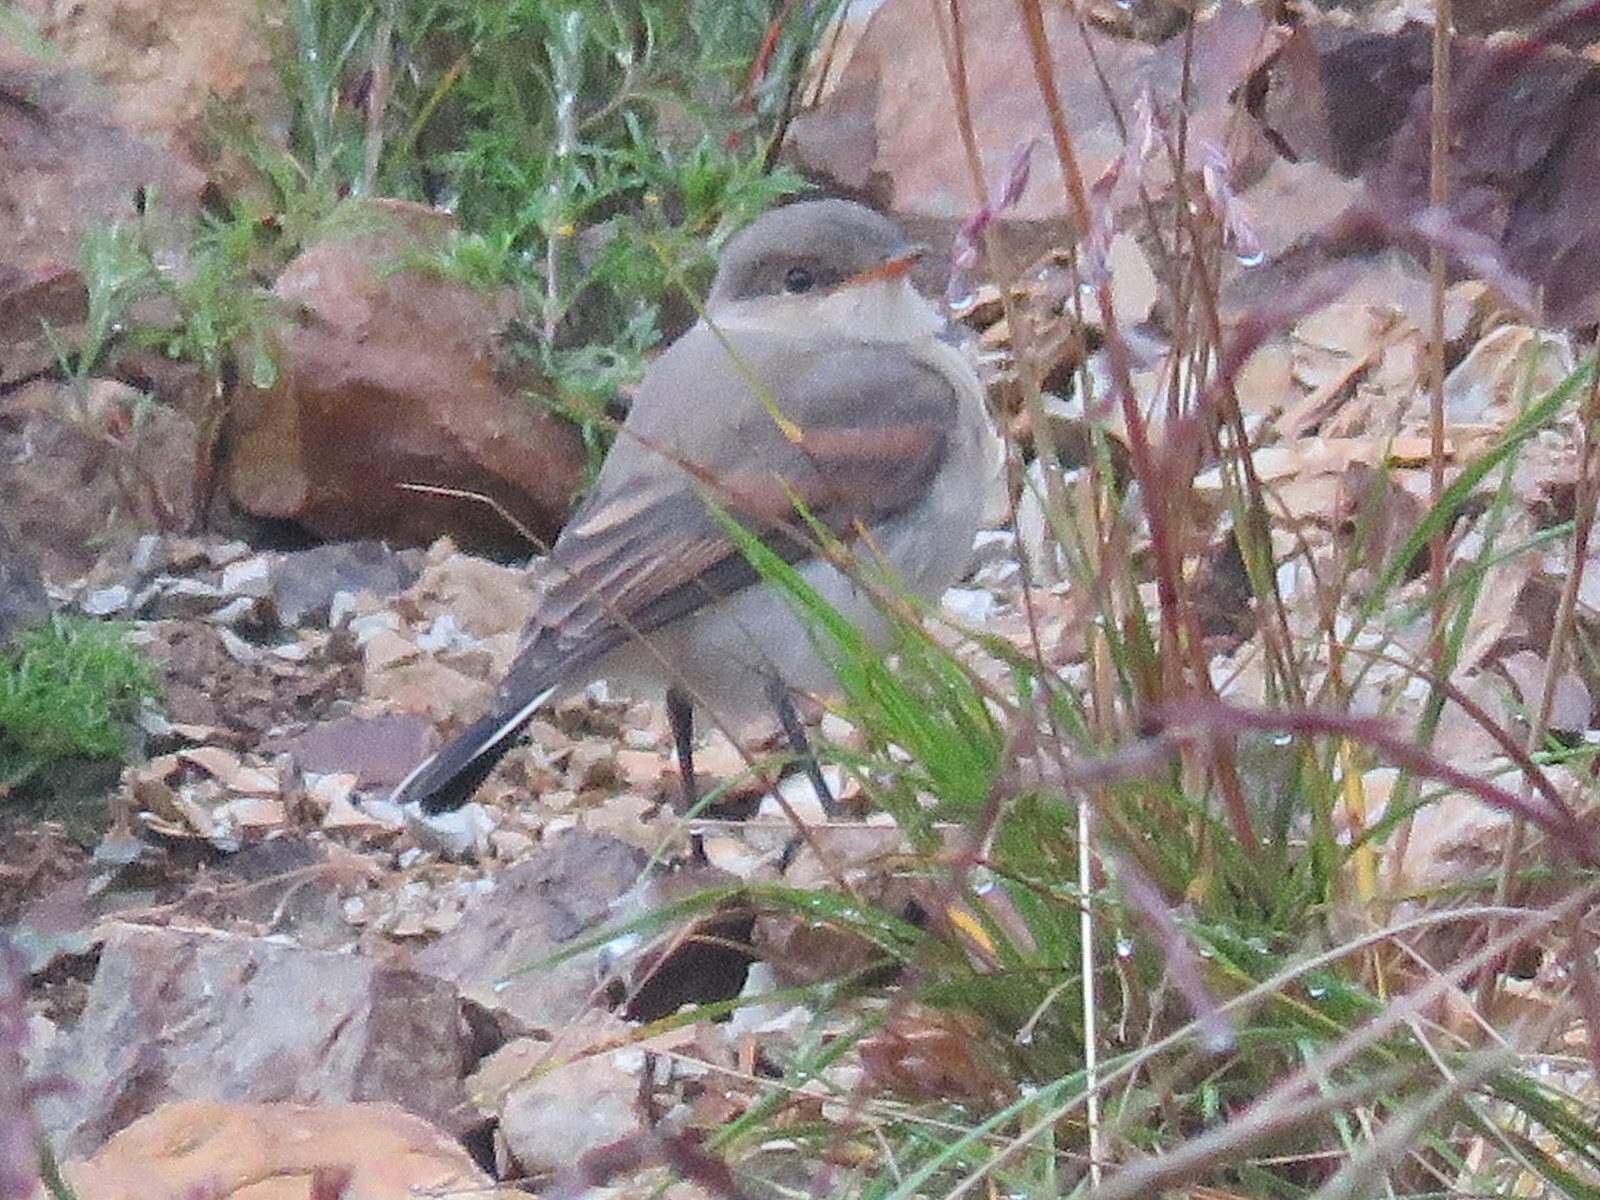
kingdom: Animalia
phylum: Chordata
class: Aves
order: Passeriformes
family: Tyrannidae
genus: Muscisaxicola
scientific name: Muscisaxicola maculirostris
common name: Spot-billed ground tyrant
